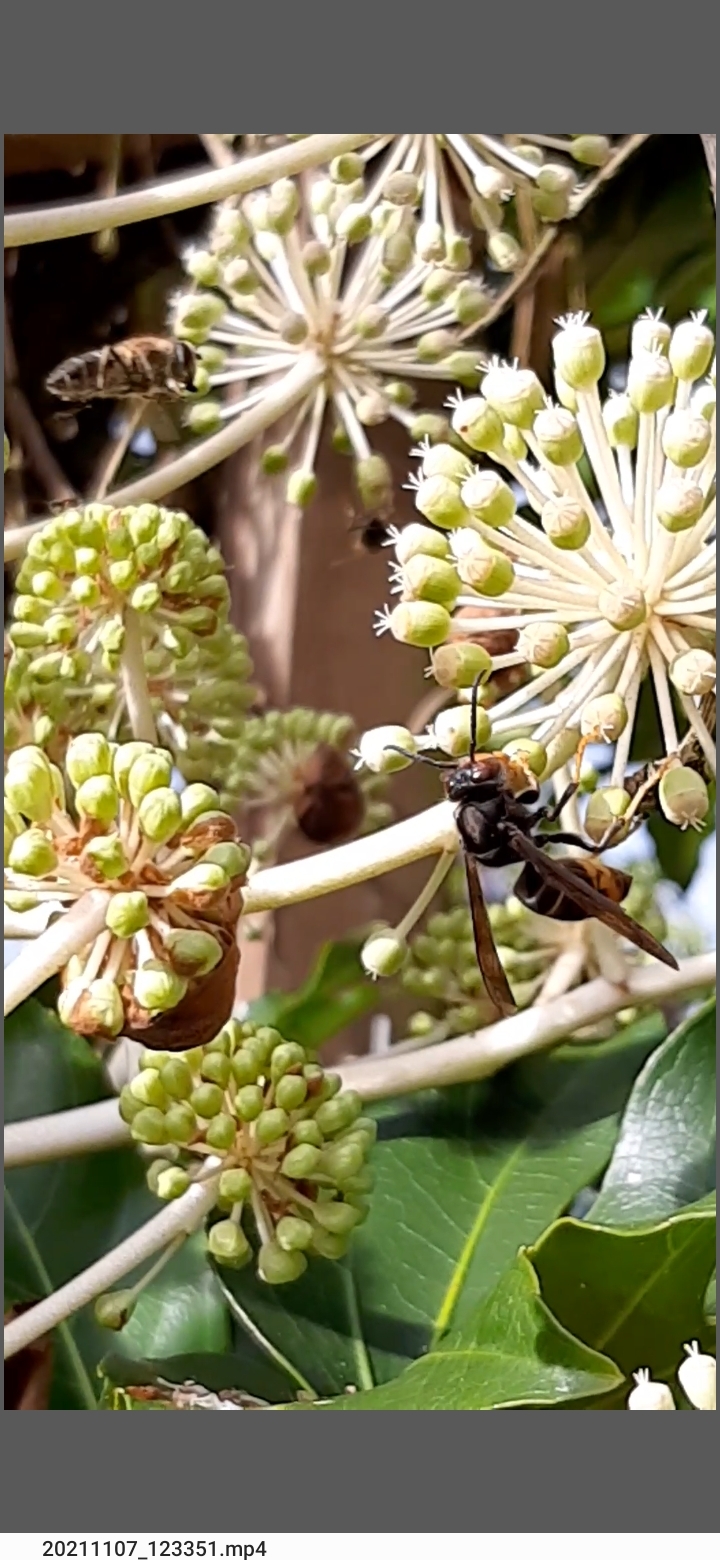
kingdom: Animalia
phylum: Arthropoda
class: Insecta
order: Hymenoptera
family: Vespidae
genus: Vespa
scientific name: Vespa velutina
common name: Asian hornet
